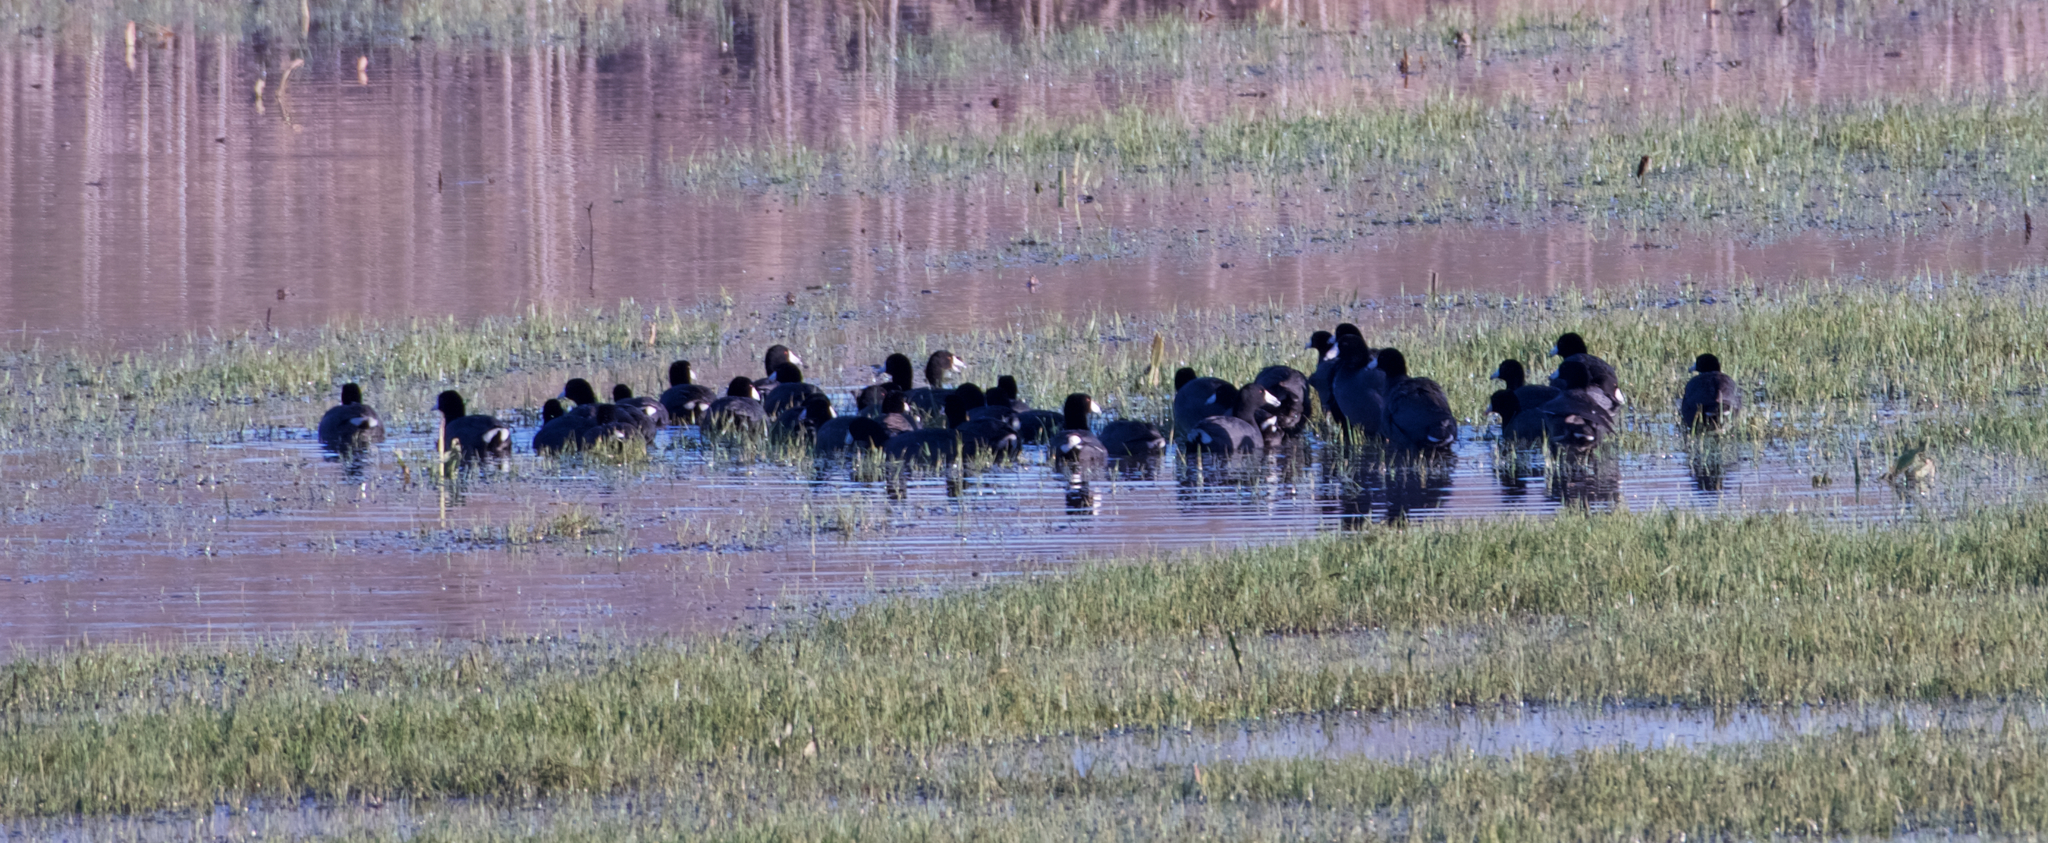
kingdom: Animalia
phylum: Chordata
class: Aves
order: Gruiformes
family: Rallidae
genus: Fulica
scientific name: Fulica americana
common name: American coot
